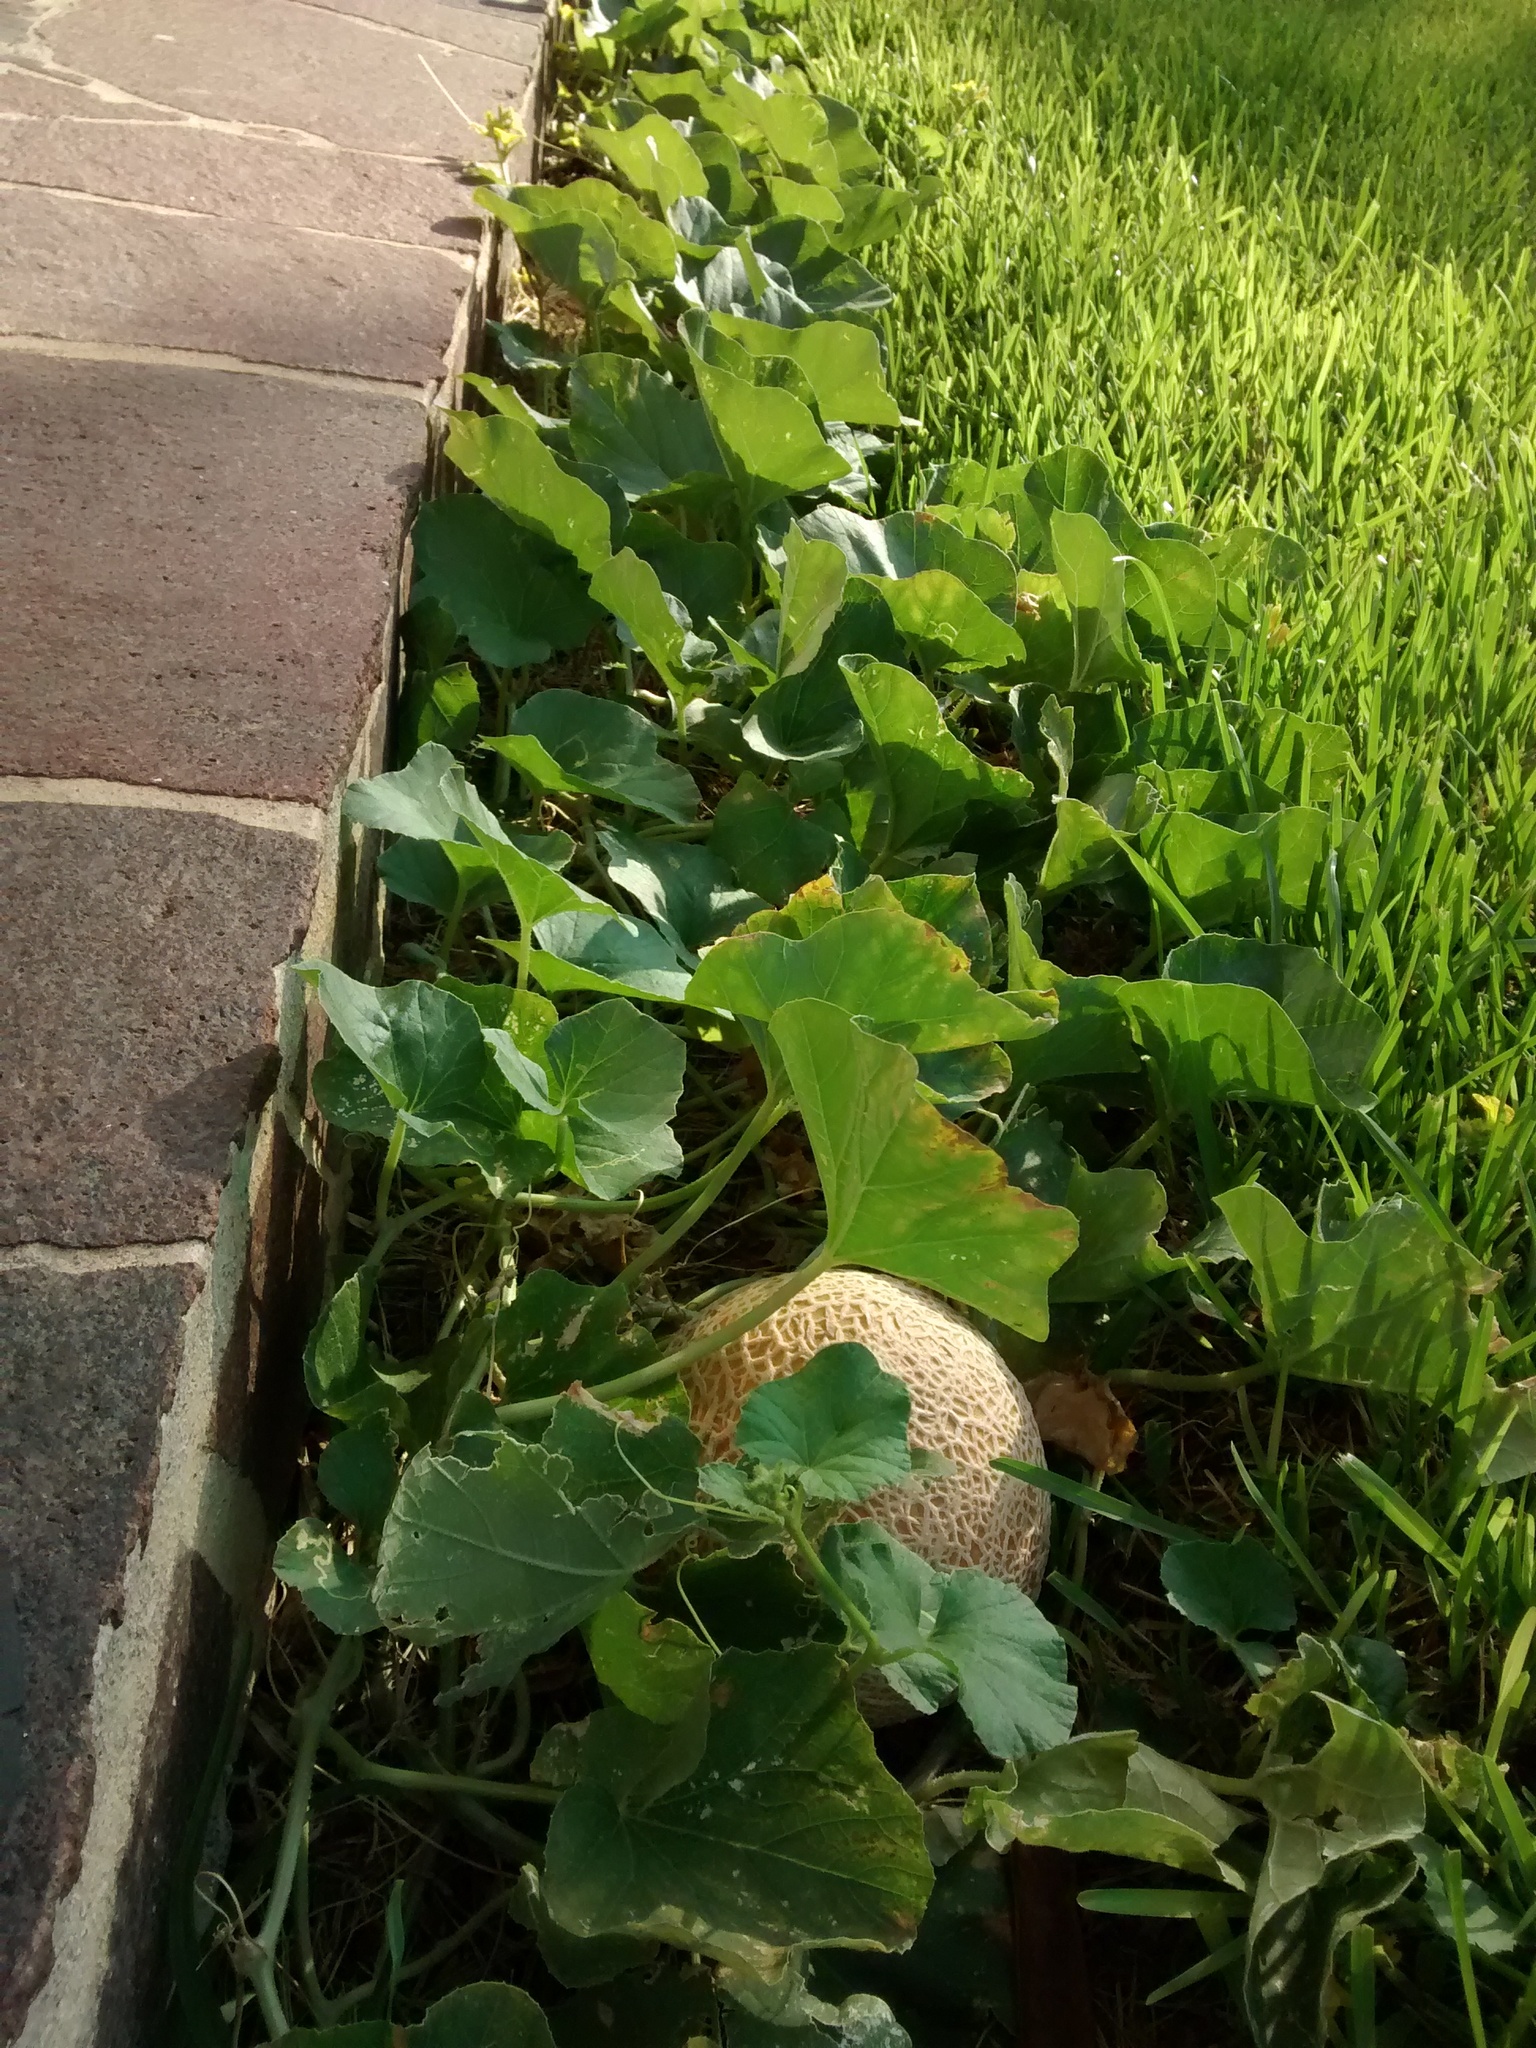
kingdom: Plantae
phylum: Tracheophyta
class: Magnoliopsida
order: Cucurbitales
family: Cucurbitaceae
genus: Cucumis
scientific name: Cucumis melo
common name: Melon
